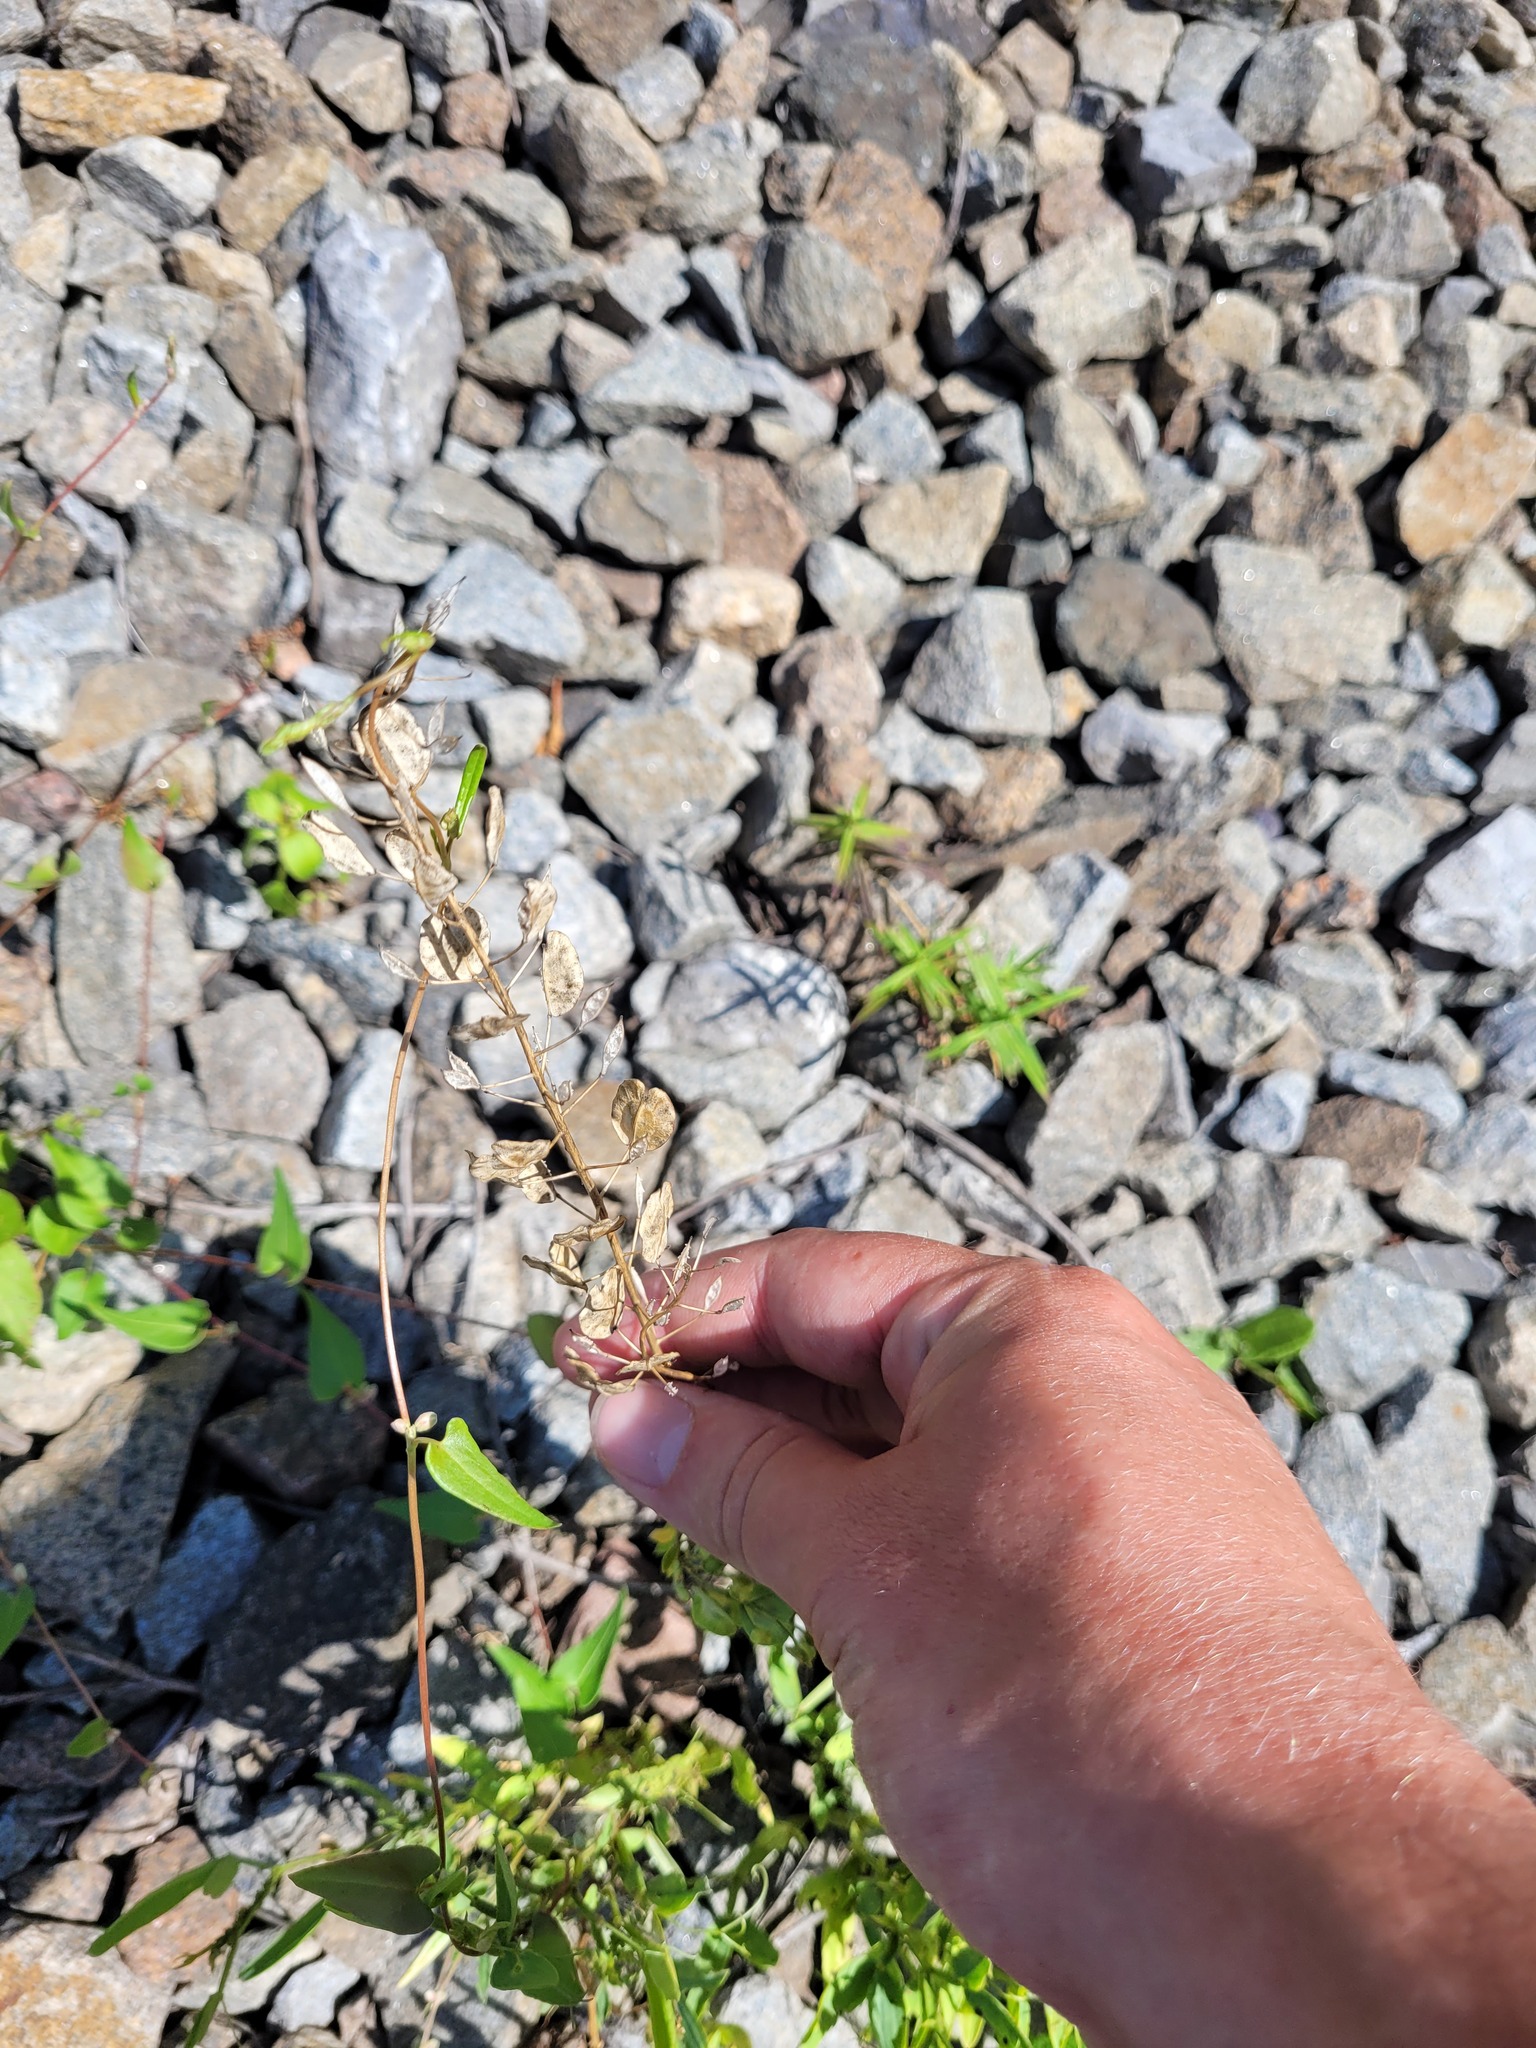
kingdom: Plantae
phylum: Tracheophyta
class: Magnoliopsida
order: Brassicales
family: Brassicaceae
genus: Thlaspi
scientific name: Thlaspi arvense
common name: Field pennycress
